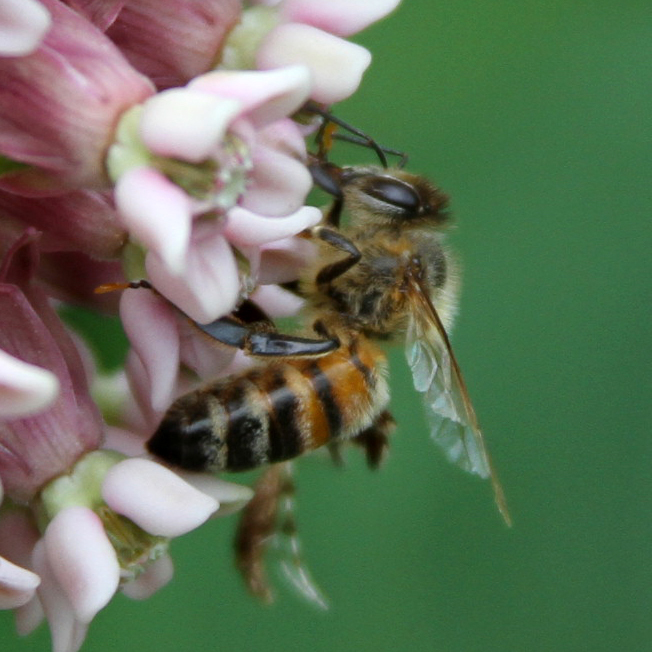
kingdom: Animalia
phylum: Arthropoda
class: Insecta
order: Hymenoptera
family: Apidae
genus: Apis
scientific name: Apis mellifera
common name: Honey bee
